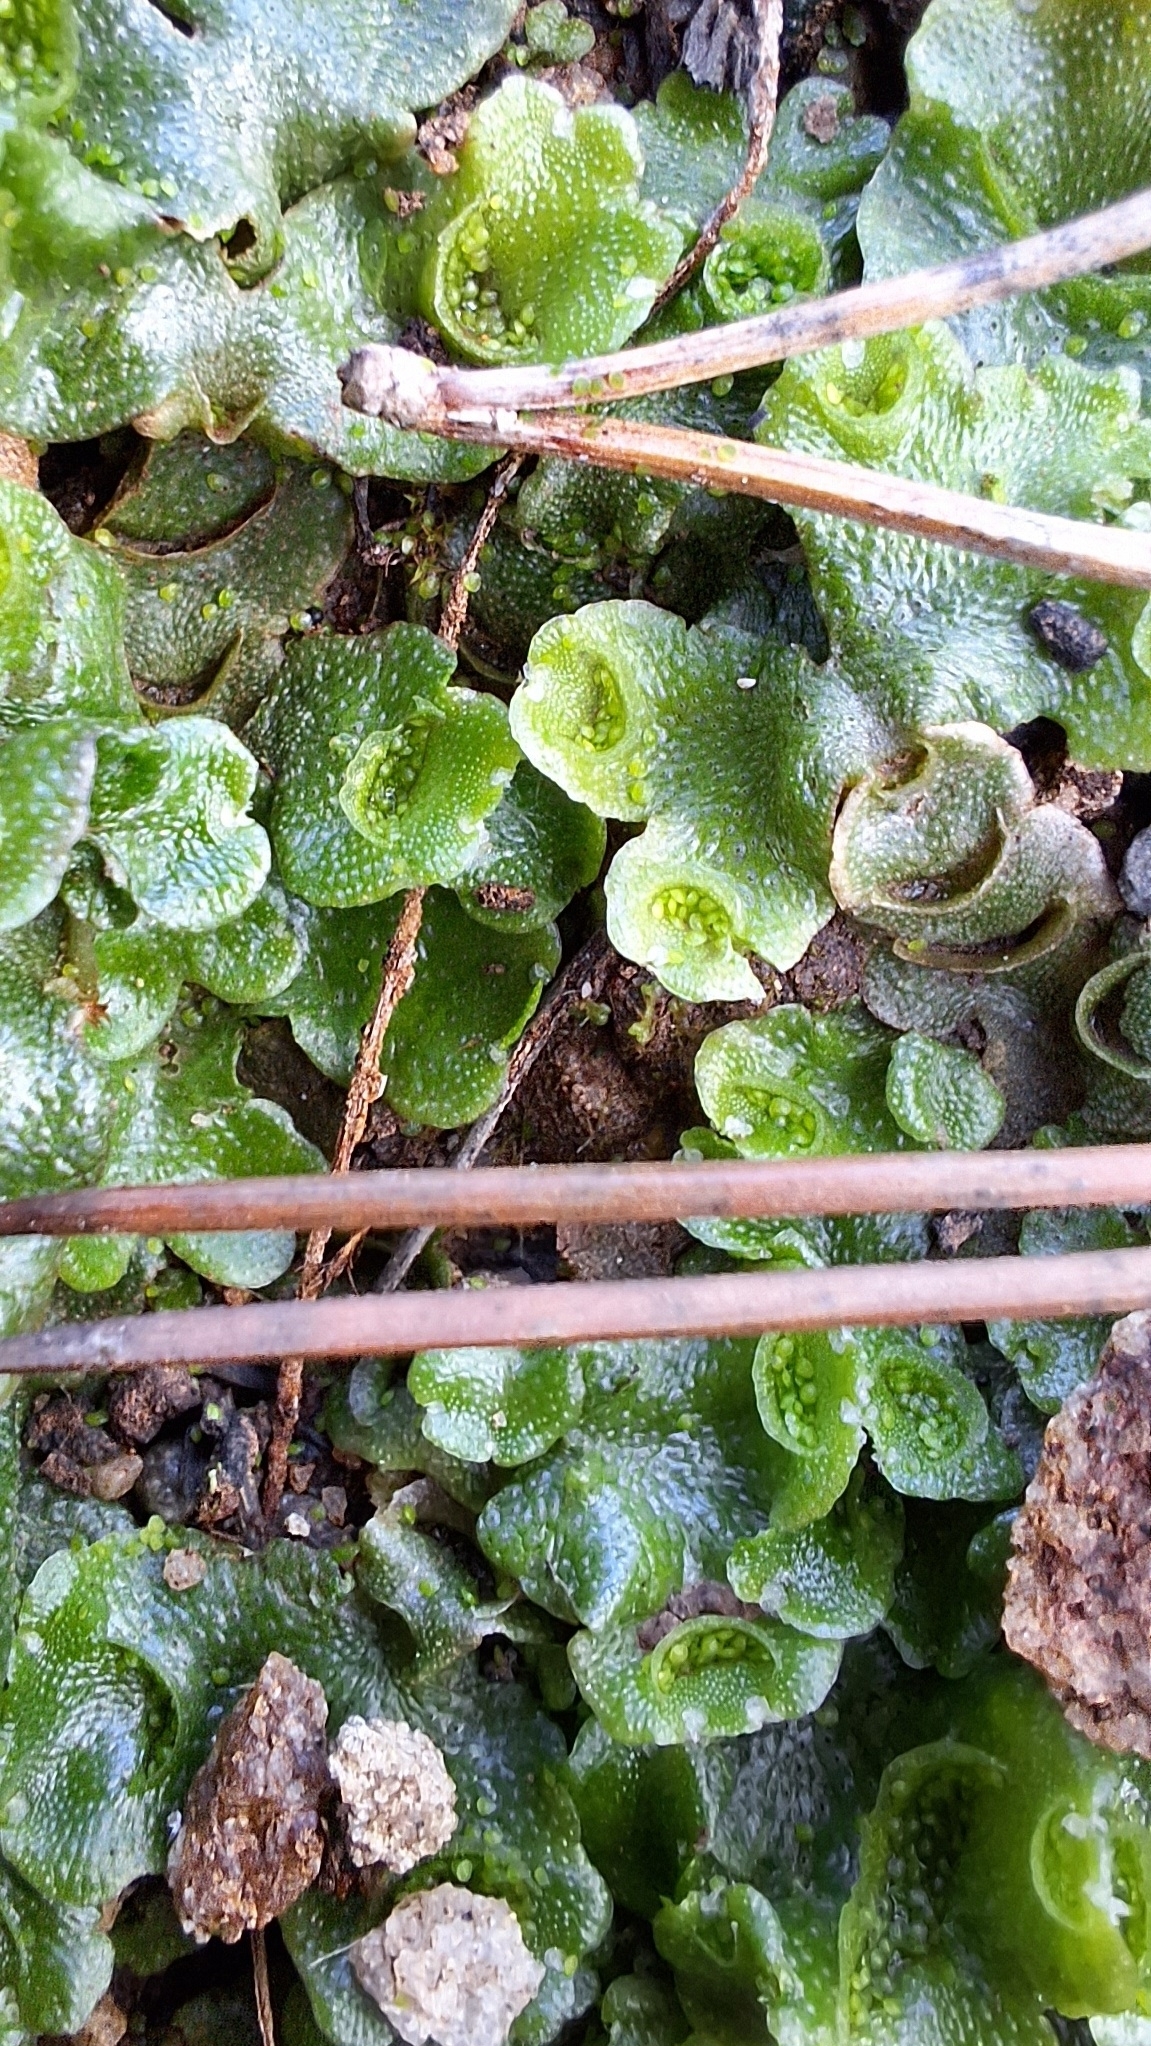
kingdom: Plantae
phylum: Marchantiophyta
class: Marchantiopsida
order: Lunulariales
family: Lunulariaceae
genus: Lunularia
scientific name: Lunularia cruciata
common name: Crescent-cup liverwort
